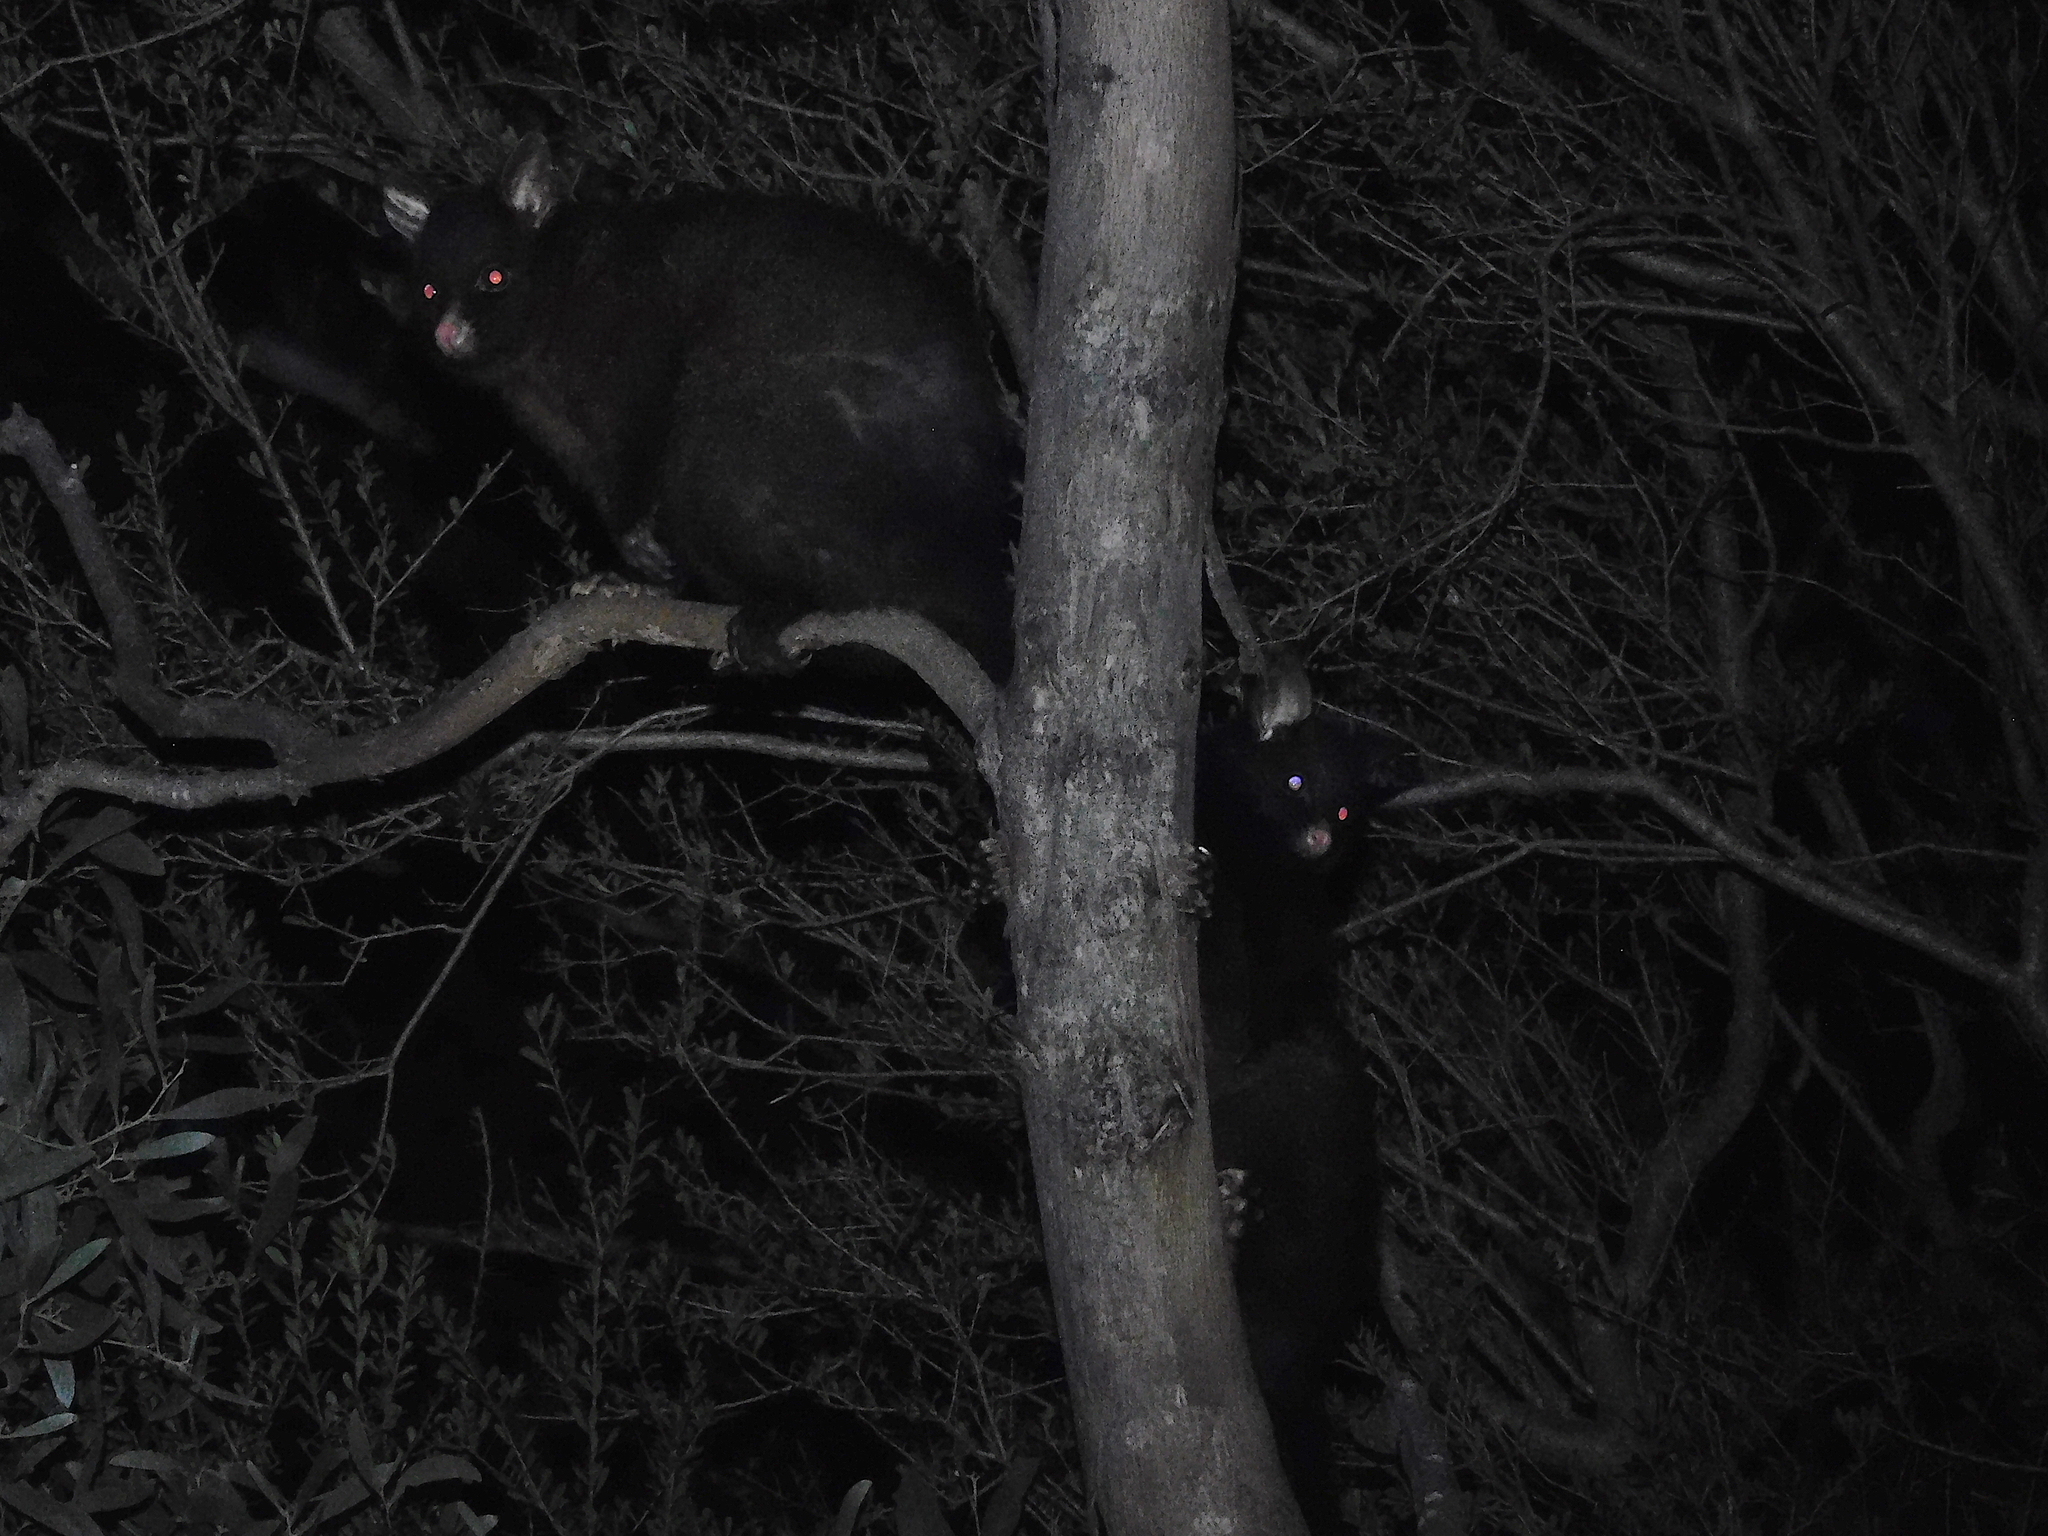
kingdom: Animalia
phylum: Chordata
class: Mammalia
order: Diprotodontia
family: Phalangeridae
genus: Trichosurus
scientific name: Trichosurus vulpecula
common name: Common brushtail
